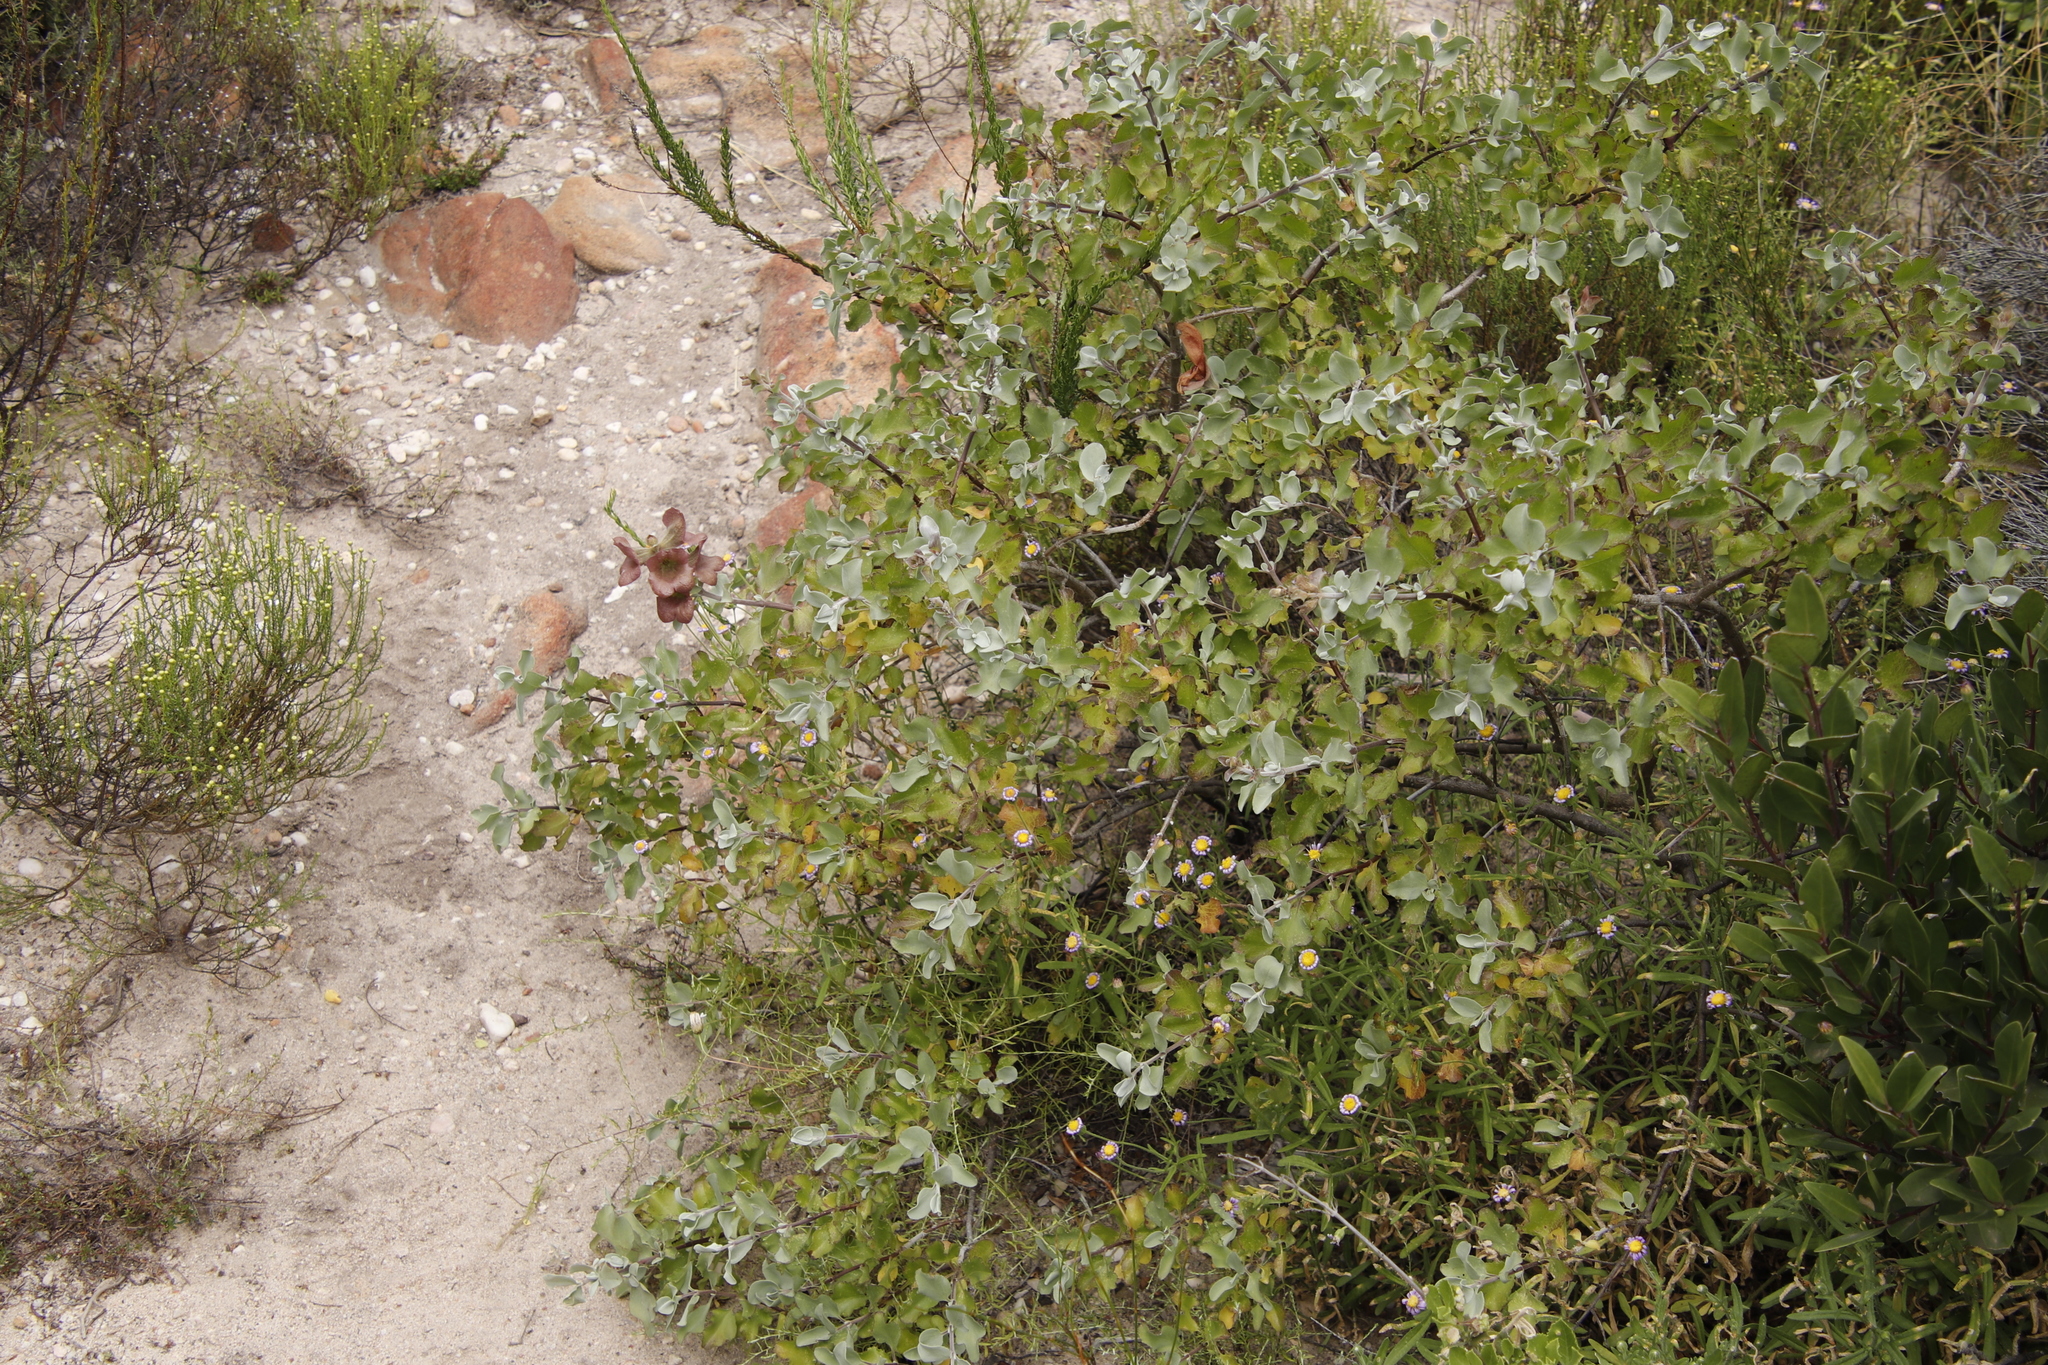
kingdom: Plantae
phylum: Tracheophyta
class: Magnoliopsida
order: Lamiales
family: Lamiaceae
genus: Salvia
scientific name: Salvia aurea
